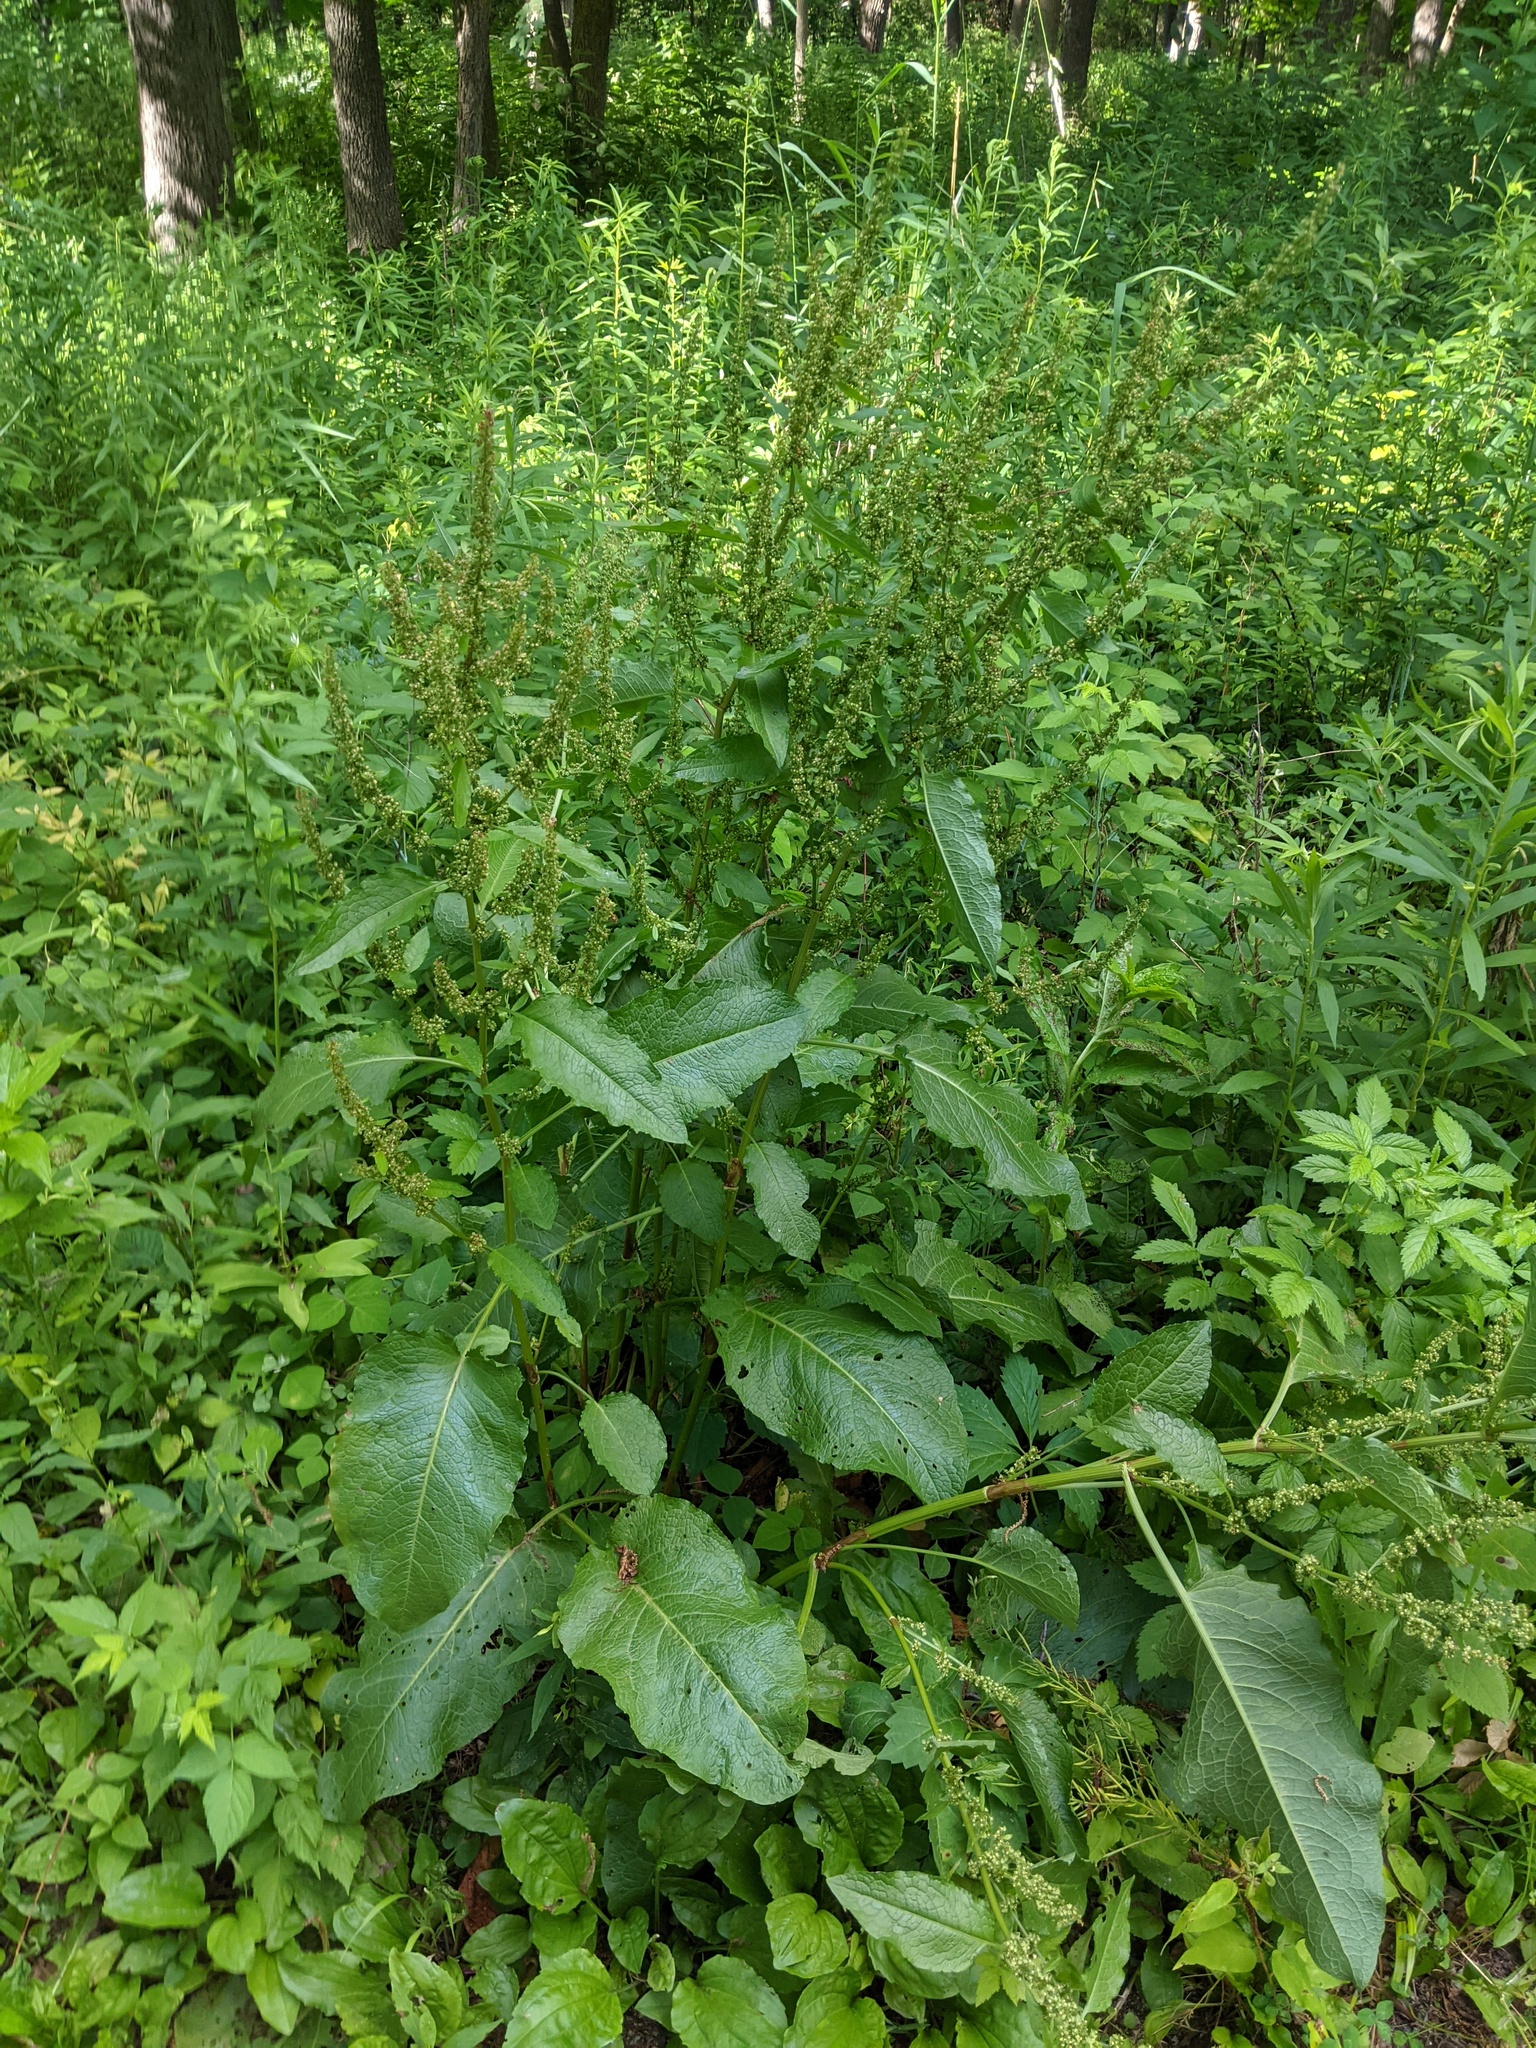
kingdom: Plantae
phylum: Tracheophyta
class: Magnoliopsida
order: Caryophyllales
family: Polygonaceae
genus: Rumex
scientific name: Rumex obtusifolius
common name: Bitter dock
